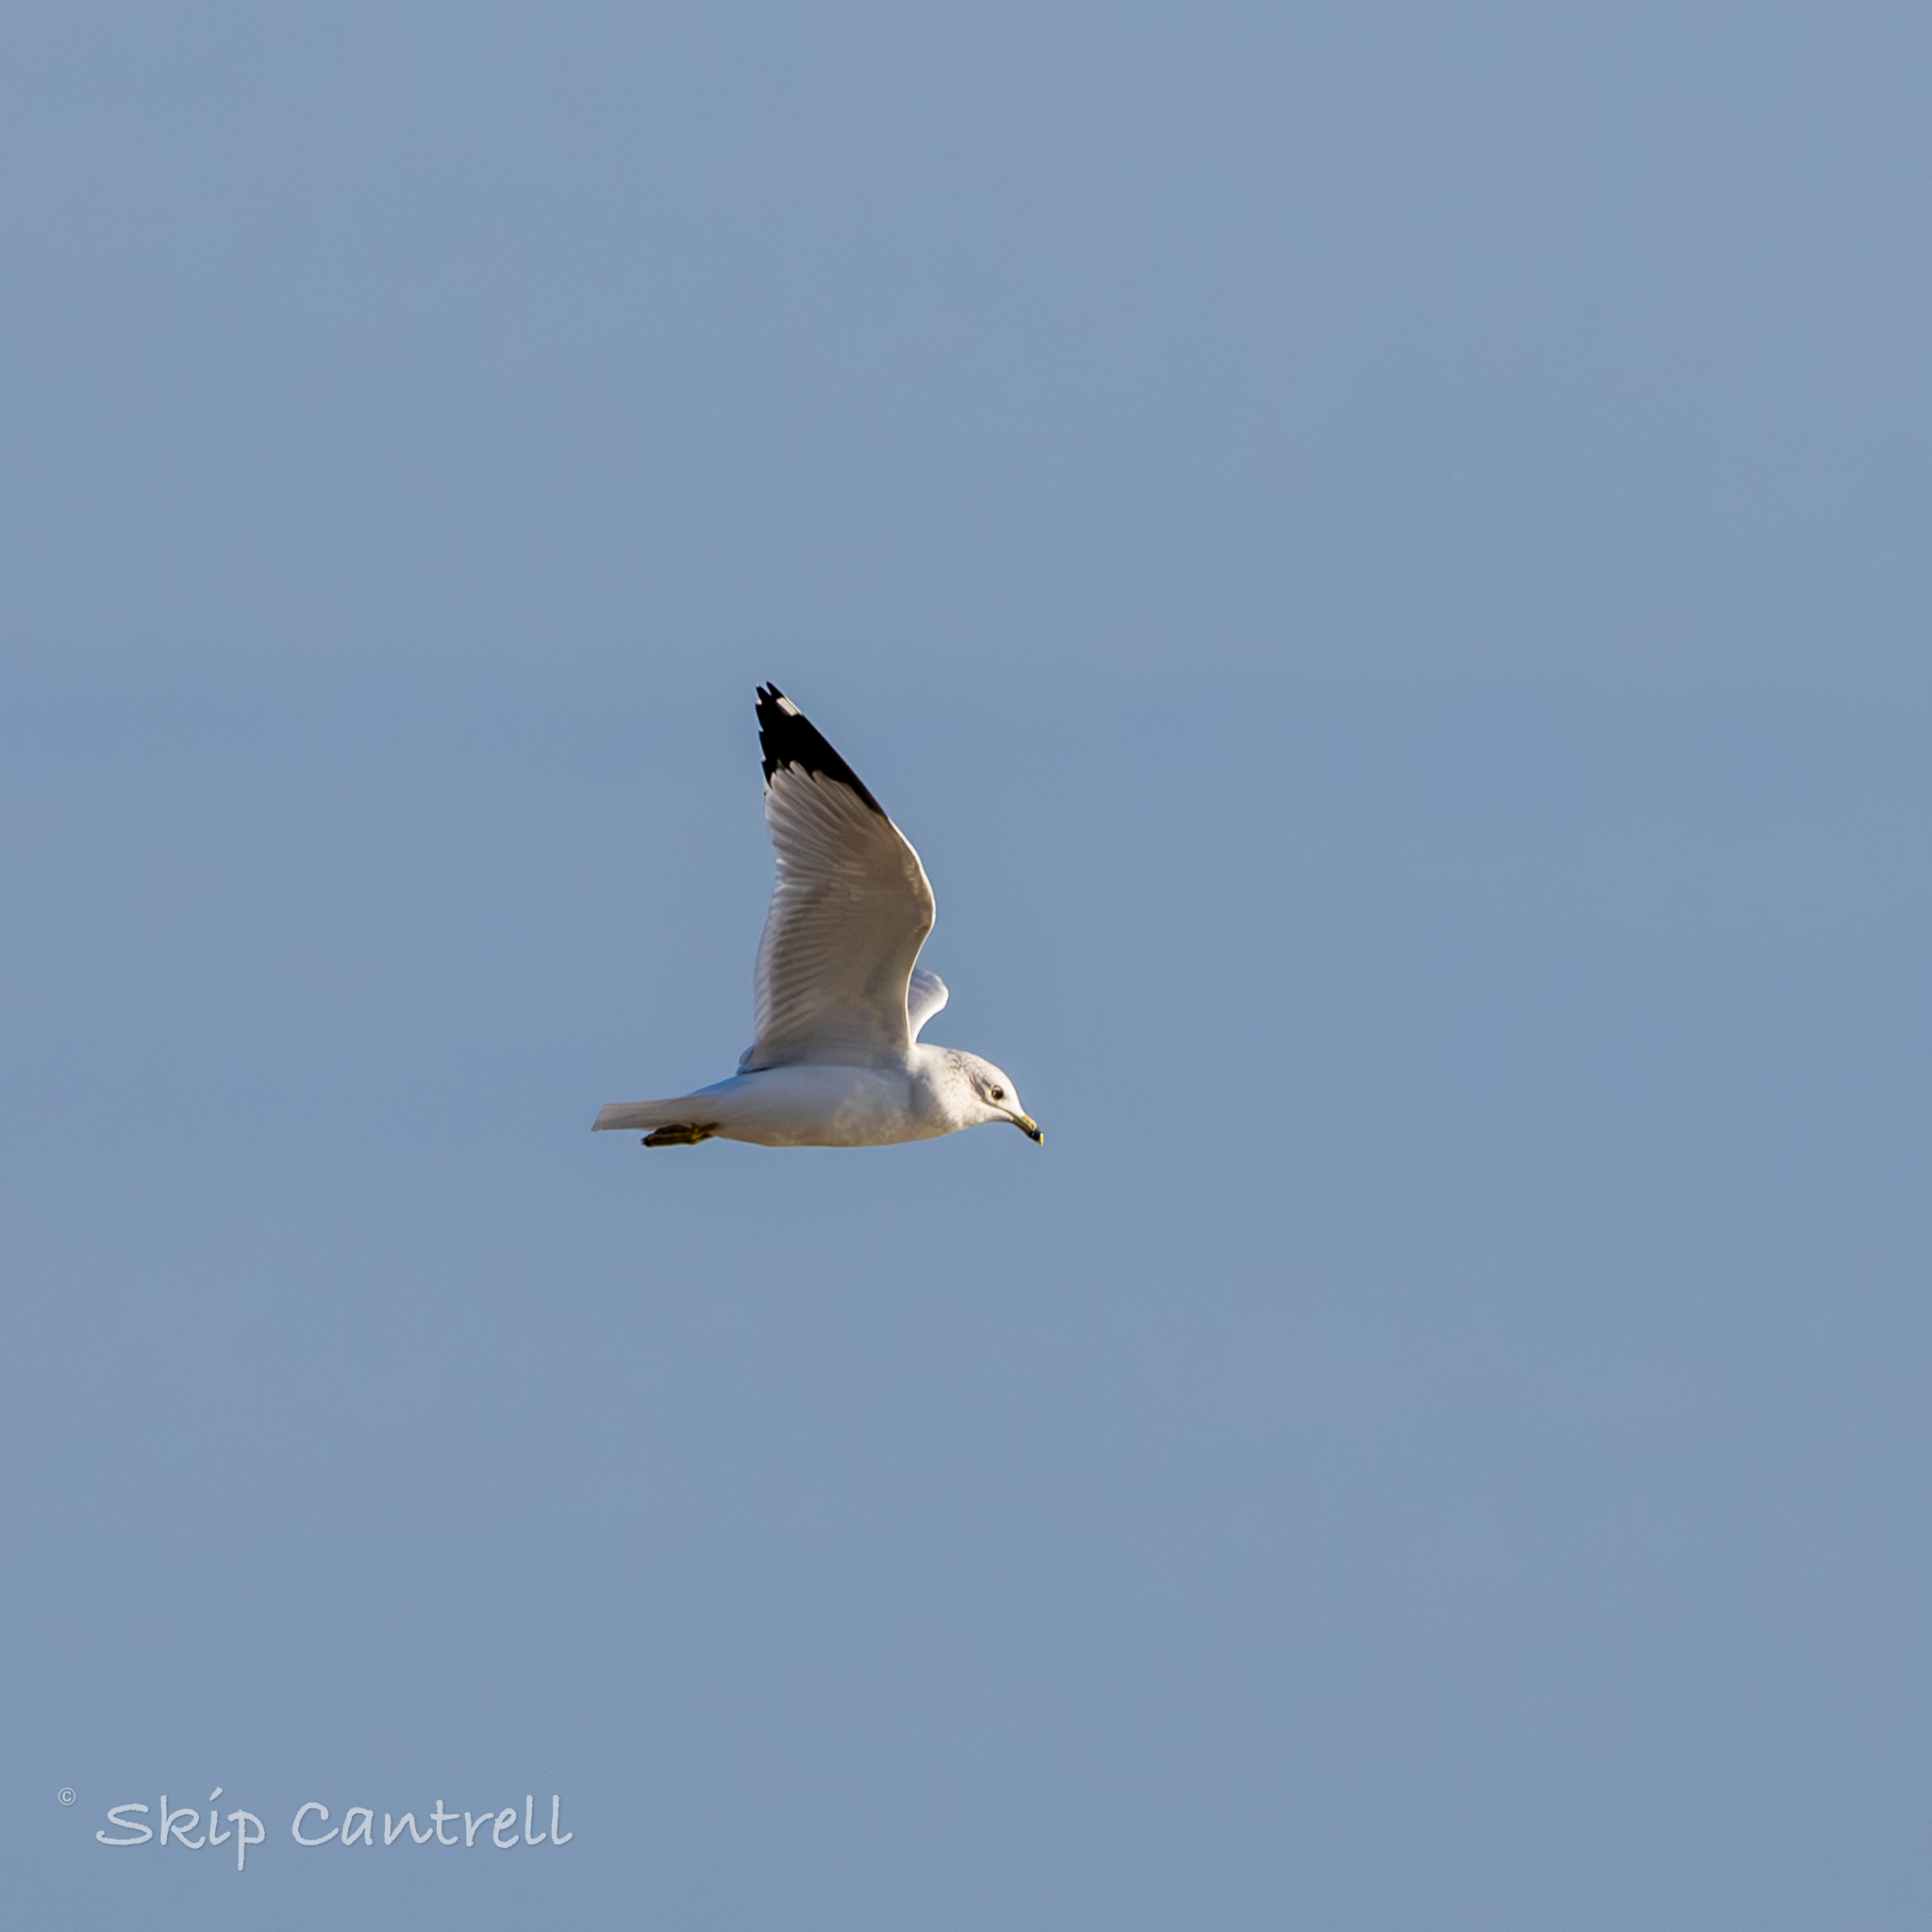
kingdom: Animalia
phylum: Chordata
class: Aves
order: Charadriiformes
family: Laridae
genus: Larus
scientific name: Larus delawarensis
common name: Ring-billed gull
